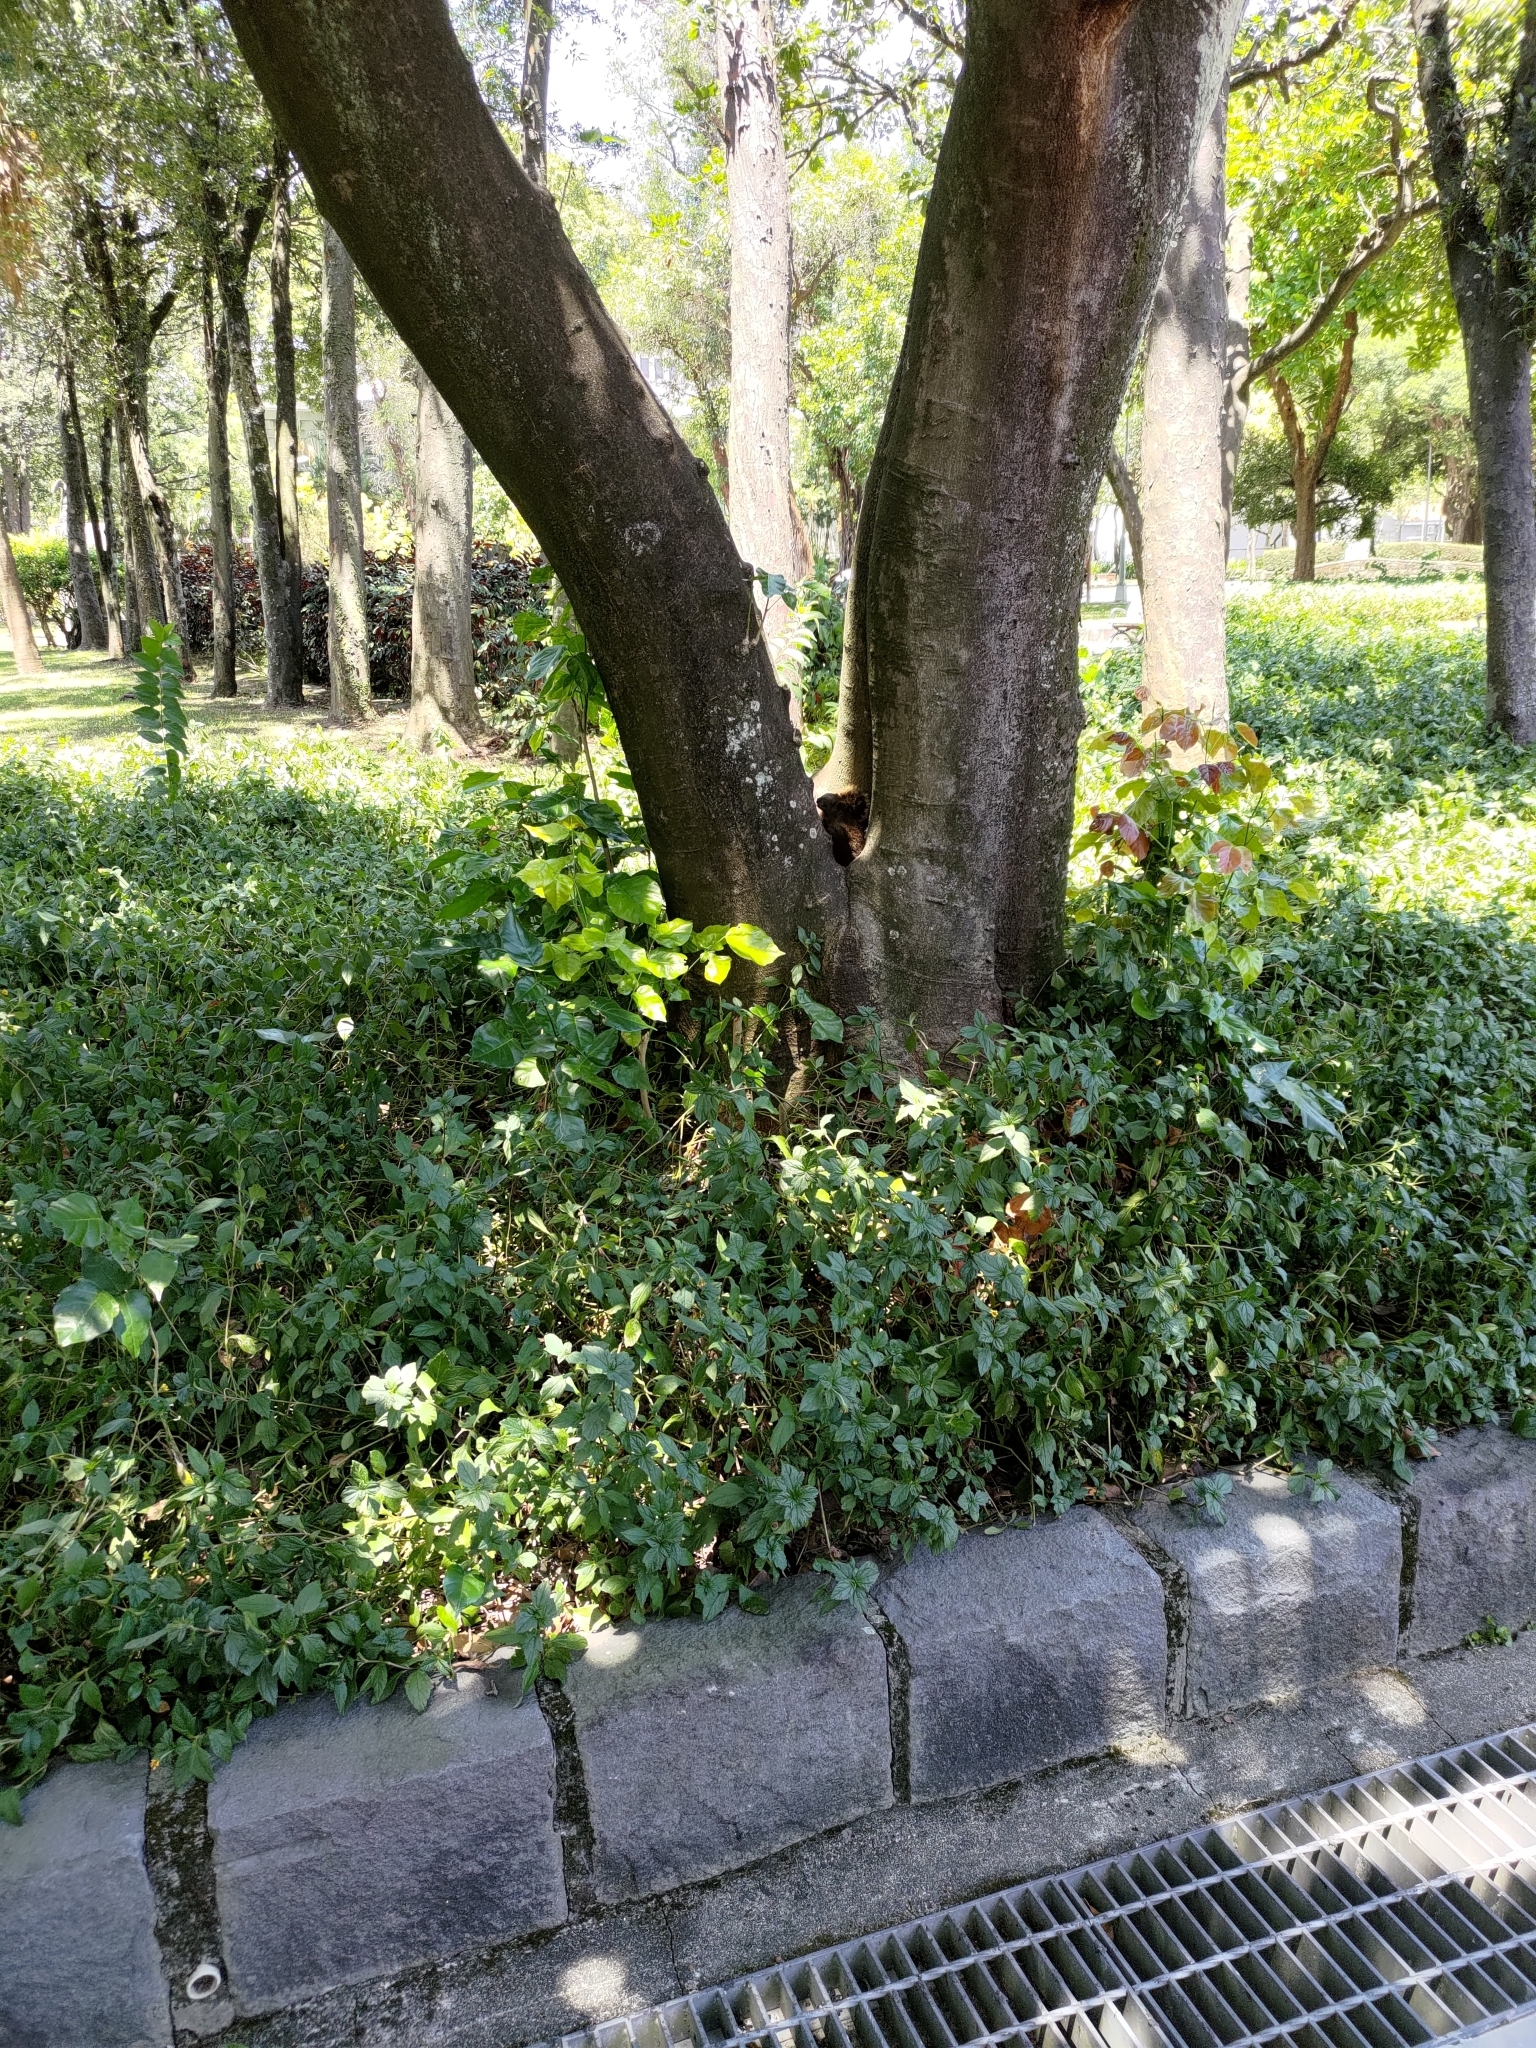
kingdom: Animalia
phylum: Chordata
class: Mammalia
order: Rodentia
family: Sciuridae
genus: Callosciurus
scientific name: Callosciurus erythraeus
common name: Pallas's squirrel
